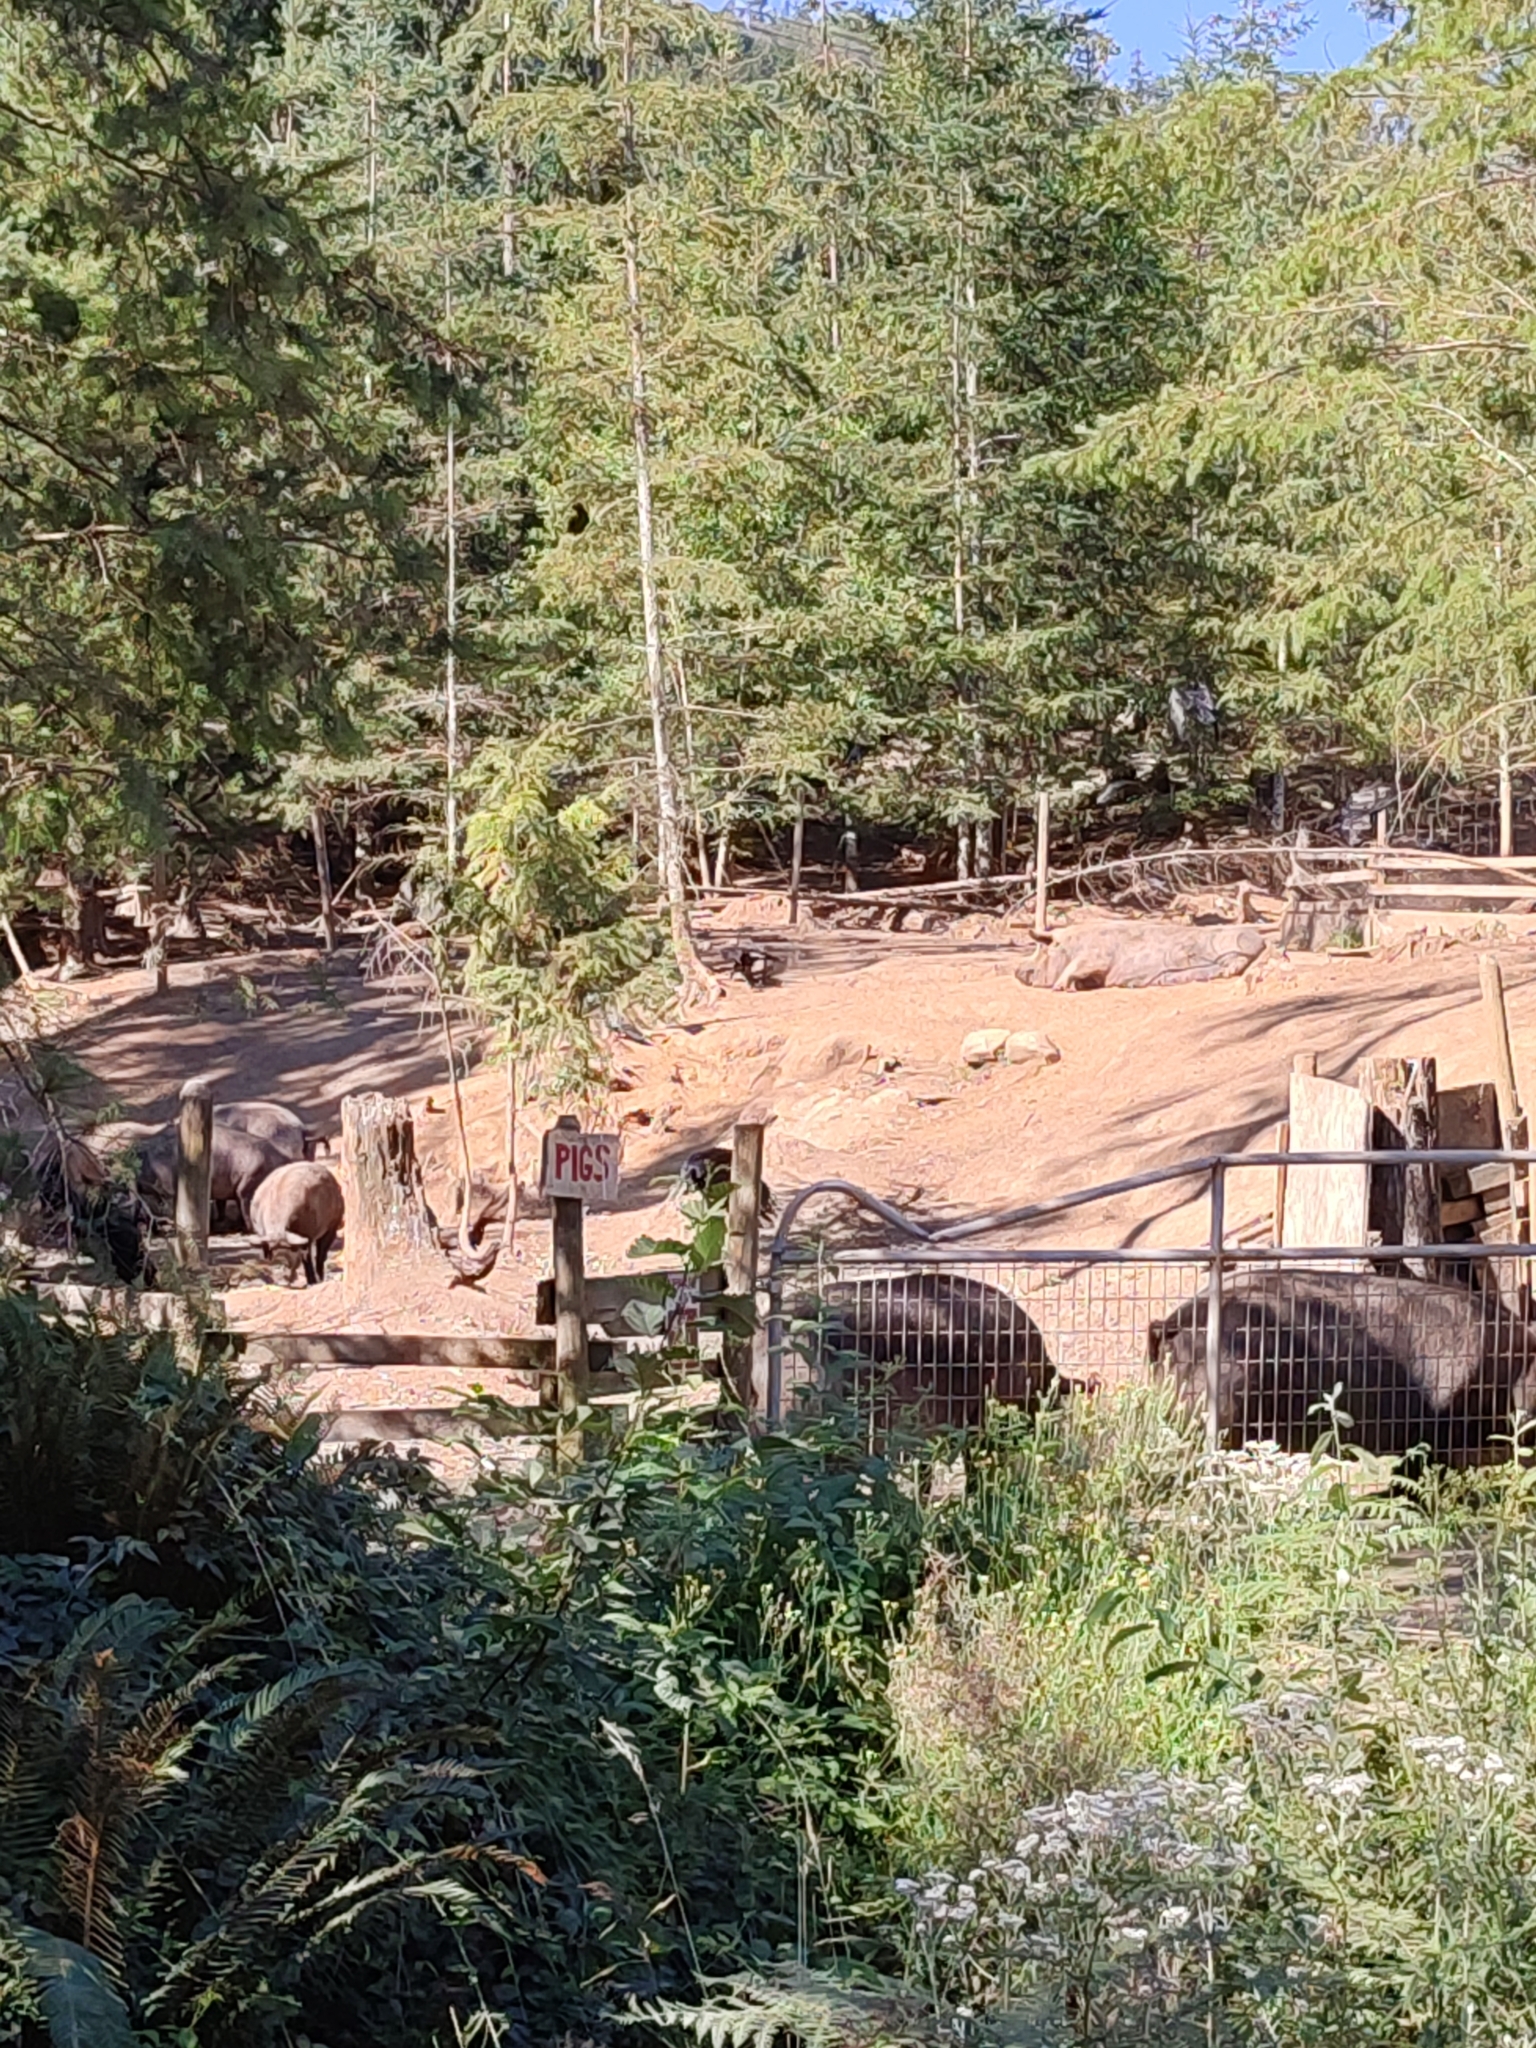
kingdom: Animalia
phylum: Chordata
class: Aves
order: Passeriformes
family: Corvidae
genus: Corvus
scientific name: Corvus corax
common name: Common raven
